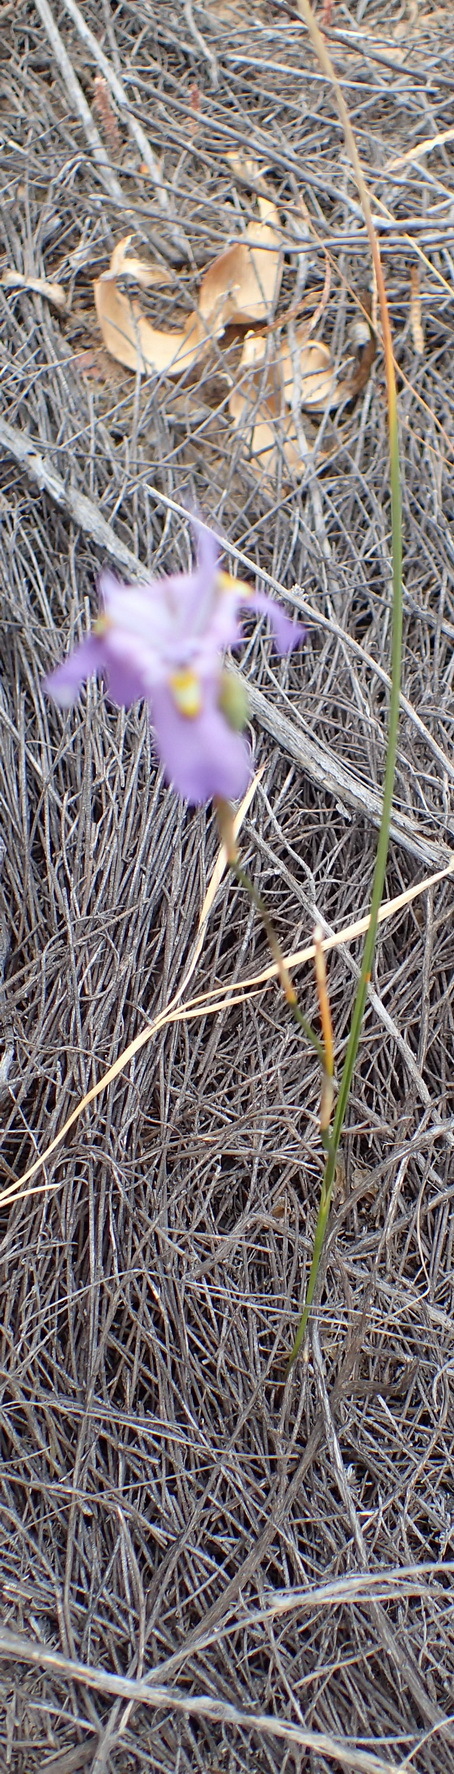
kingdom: Plantae
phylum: Tracheophyta
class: Liliopsida
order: Asparagales
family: Iridaceae
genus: Moraea
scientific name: Moraea bipartita
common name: Blue tulp
